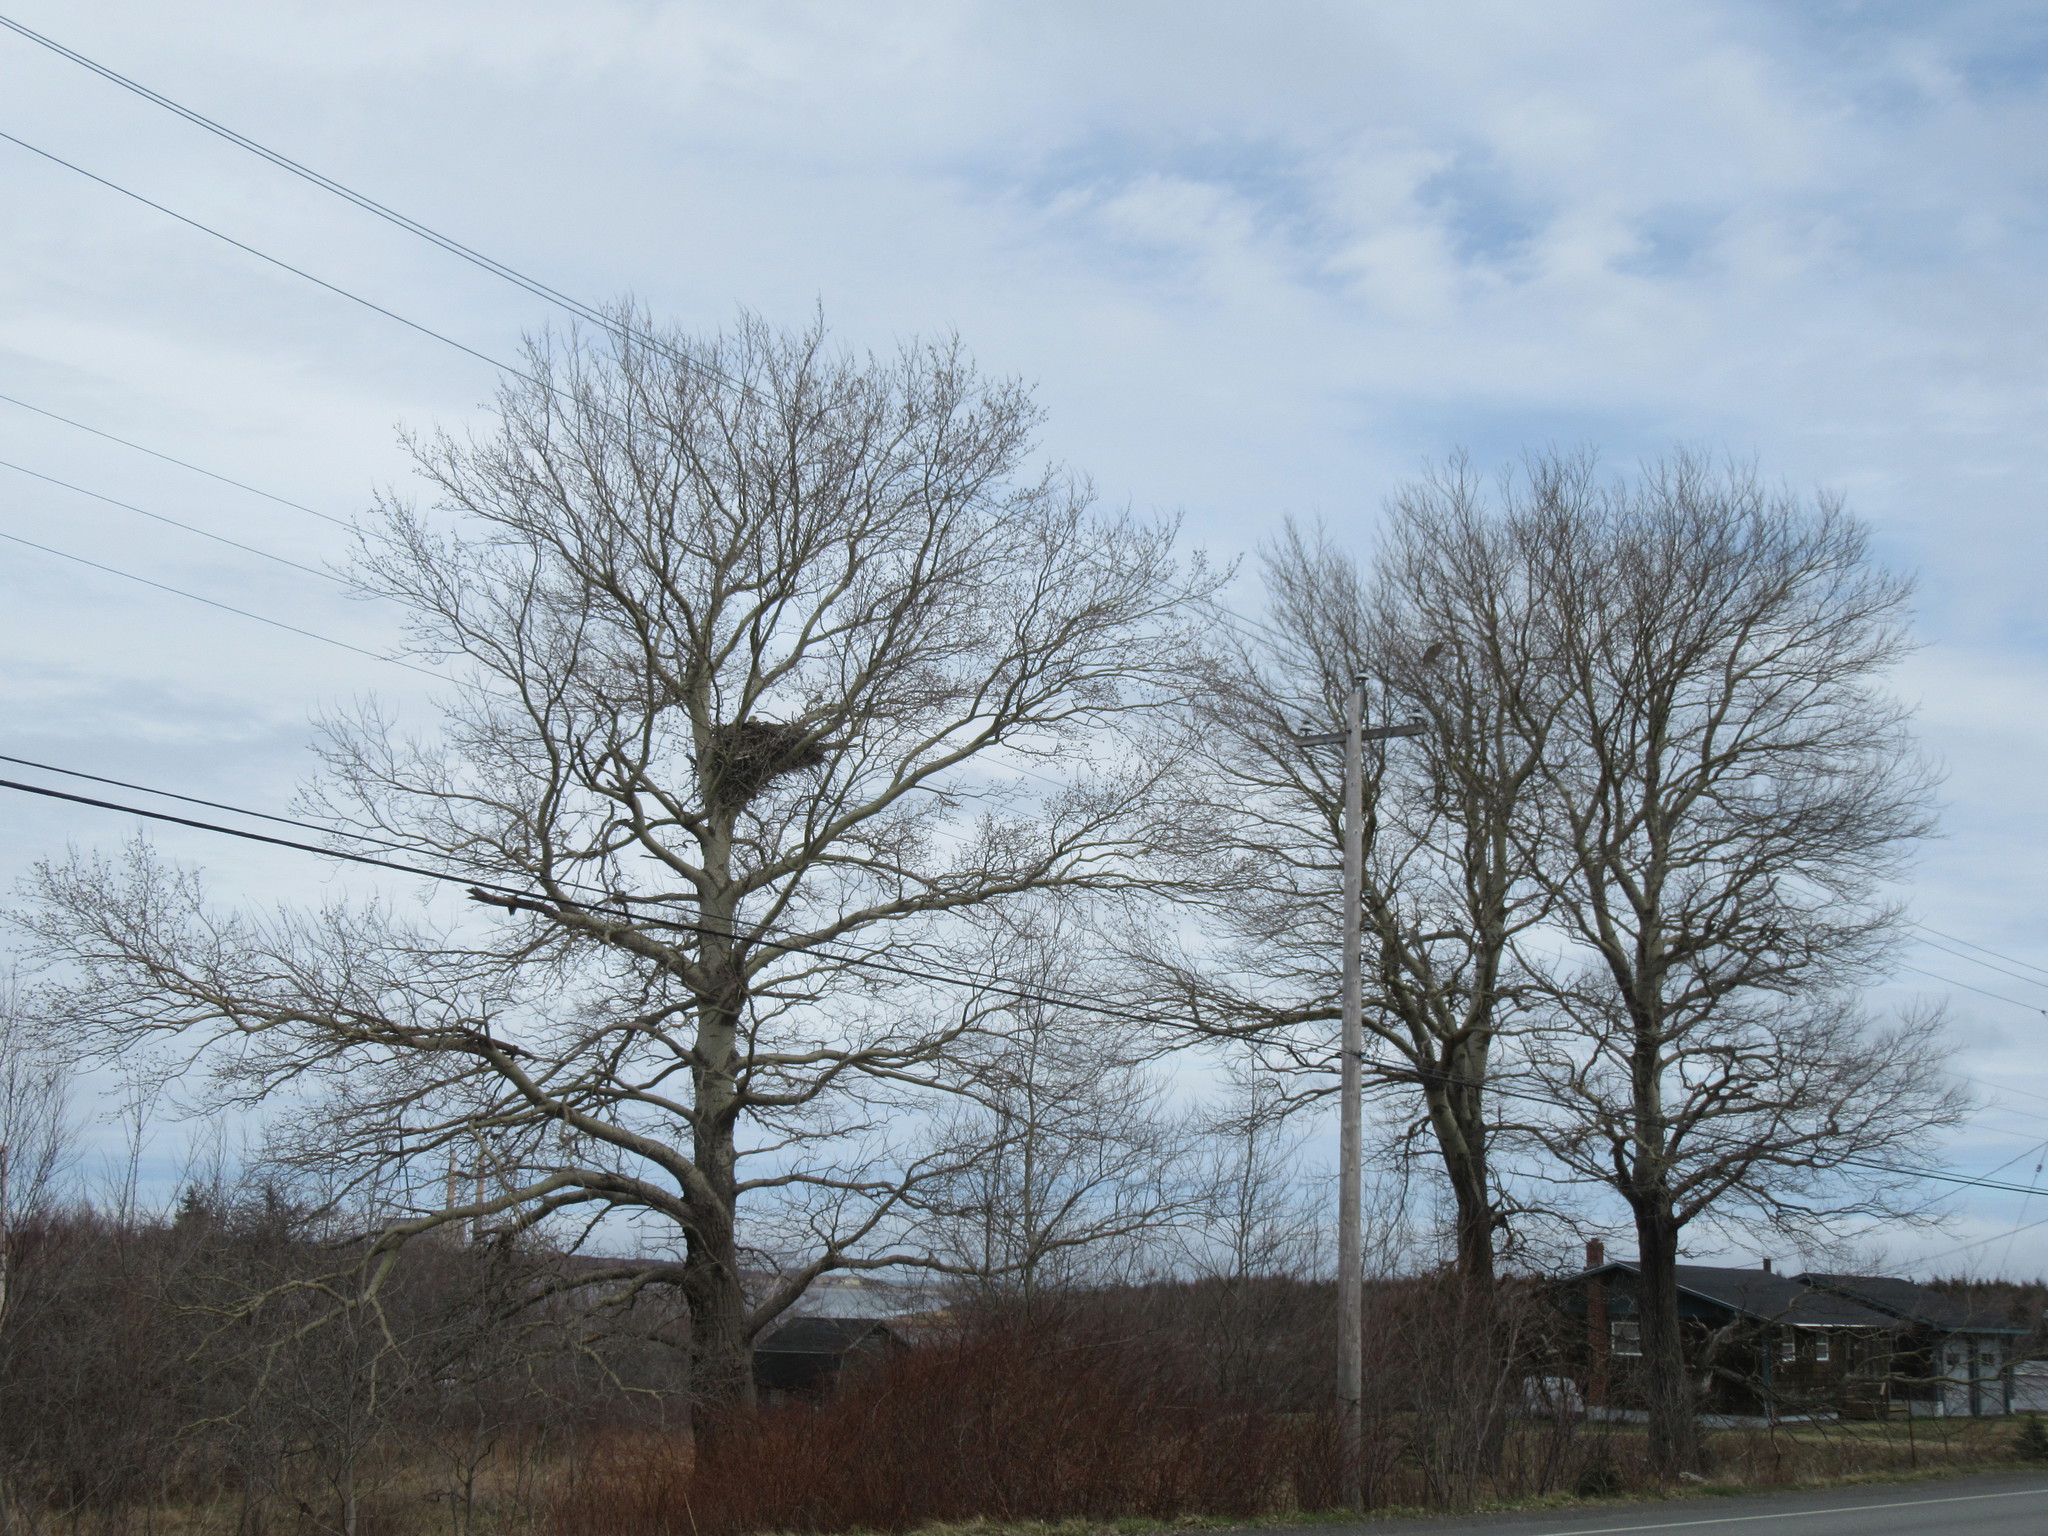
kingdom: Animalia
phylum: Chordata
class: Aves
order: Accipitriformes
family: Accipitridae
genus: Haliaeetus
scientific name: Haliaeetus leucocephalus
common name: Bald eagle
